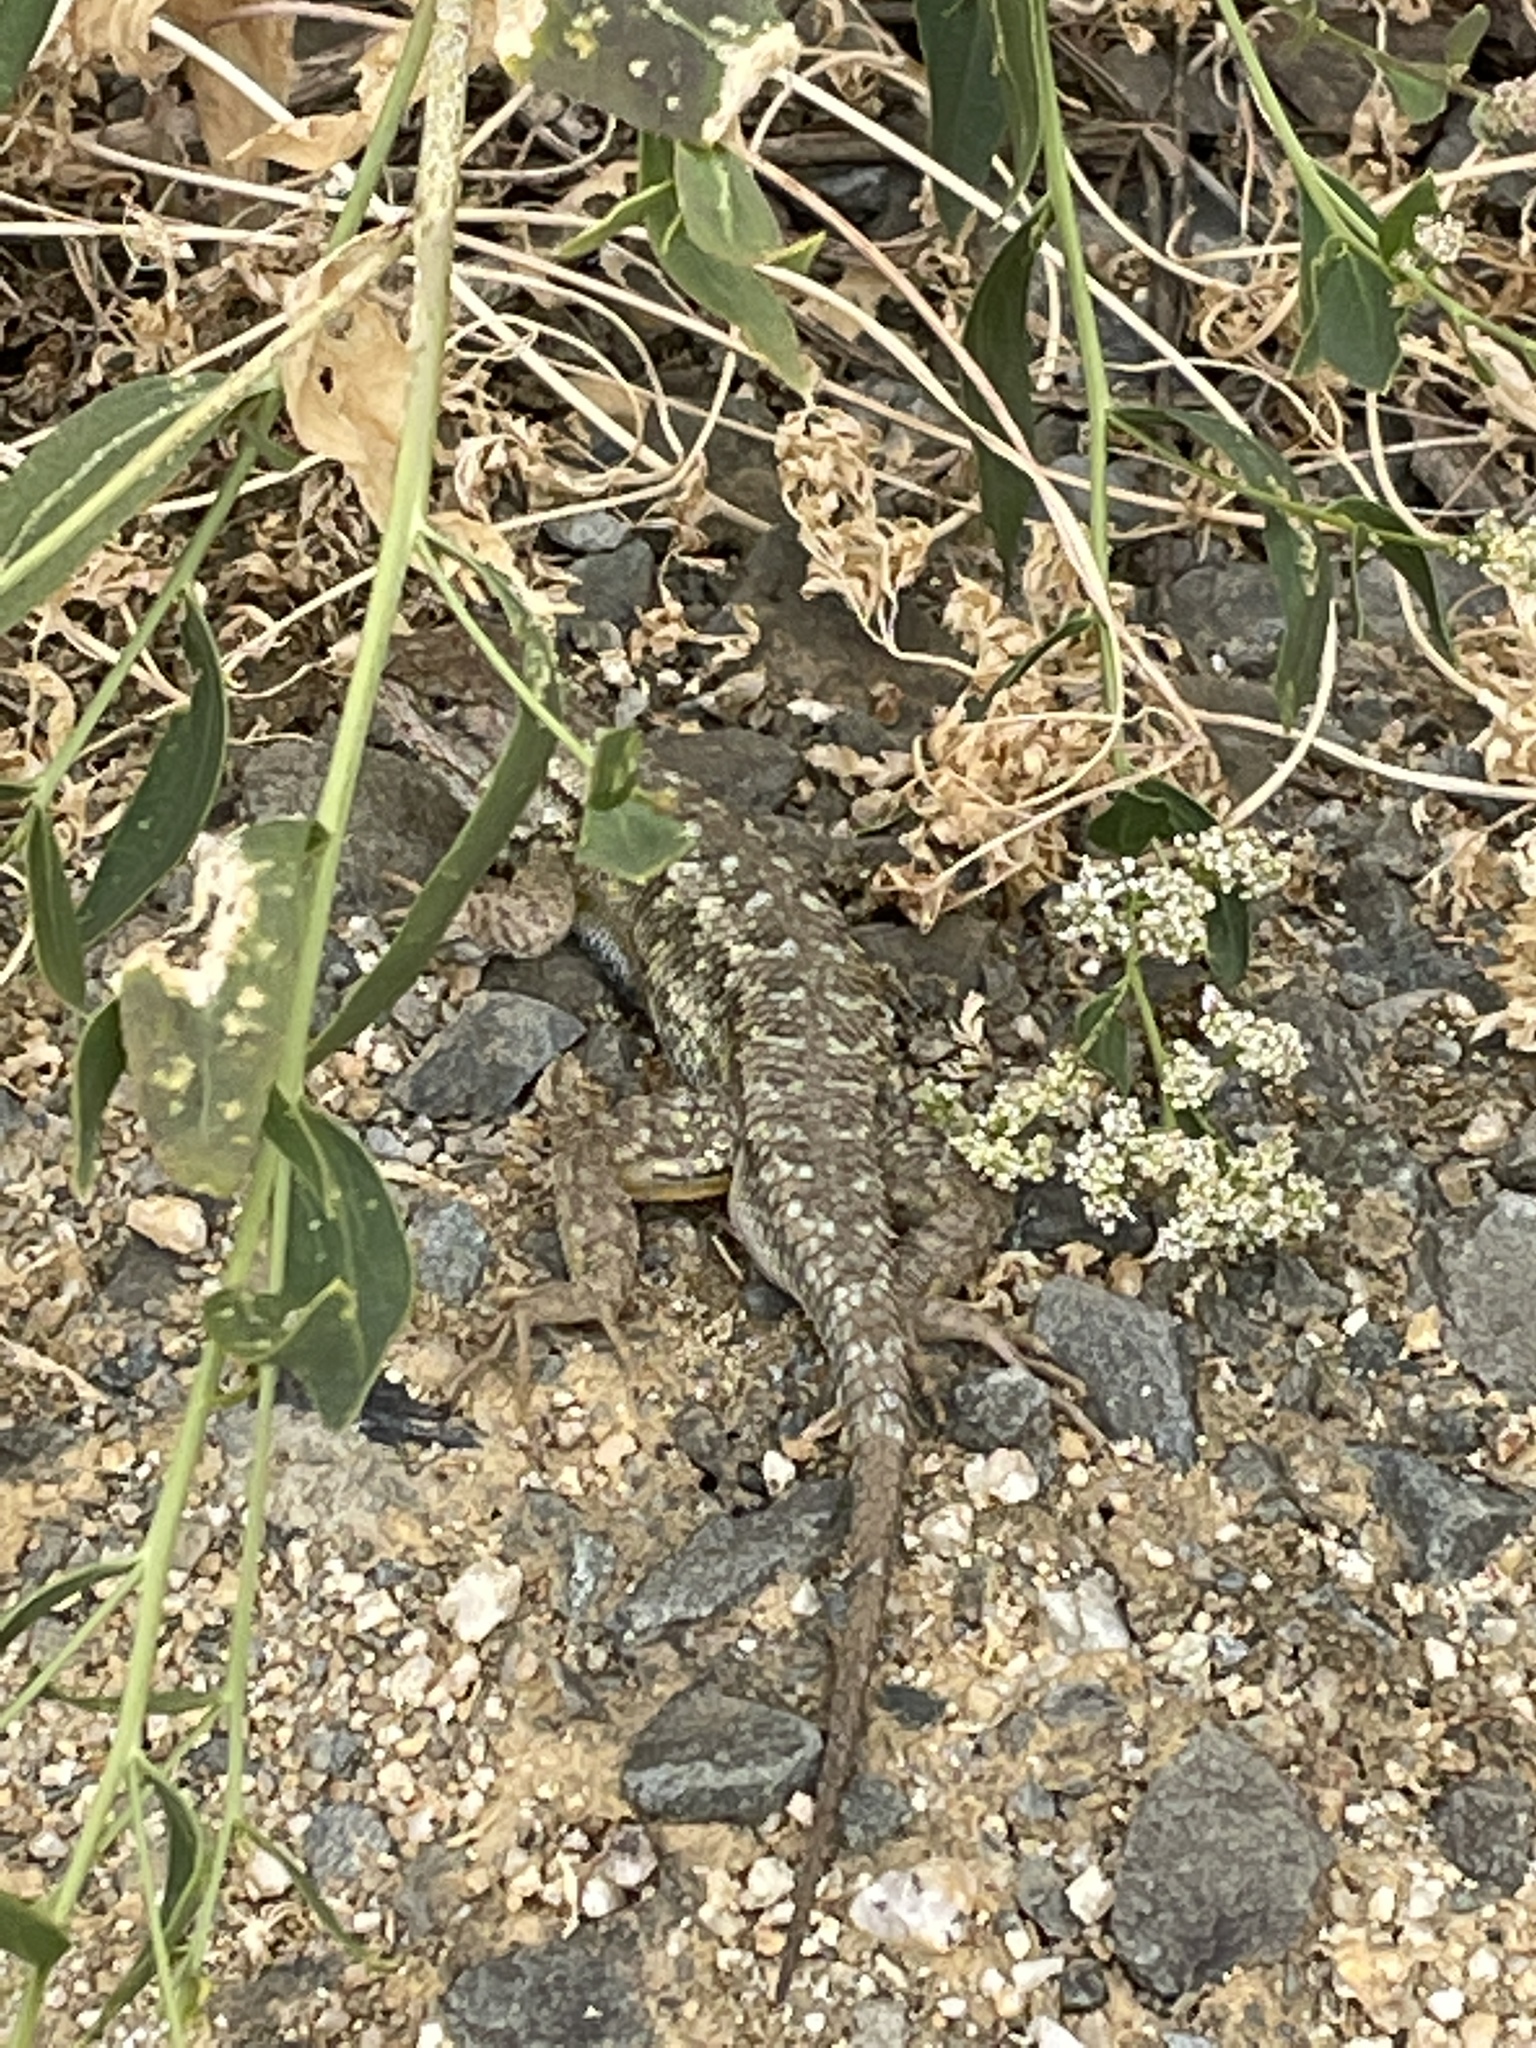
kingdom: Animalia
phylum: Chordata
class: Squamata
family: Phrynosomatidae
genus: Sceloporus
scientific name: Sceloporus occidentalis
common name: Western fence lizard
